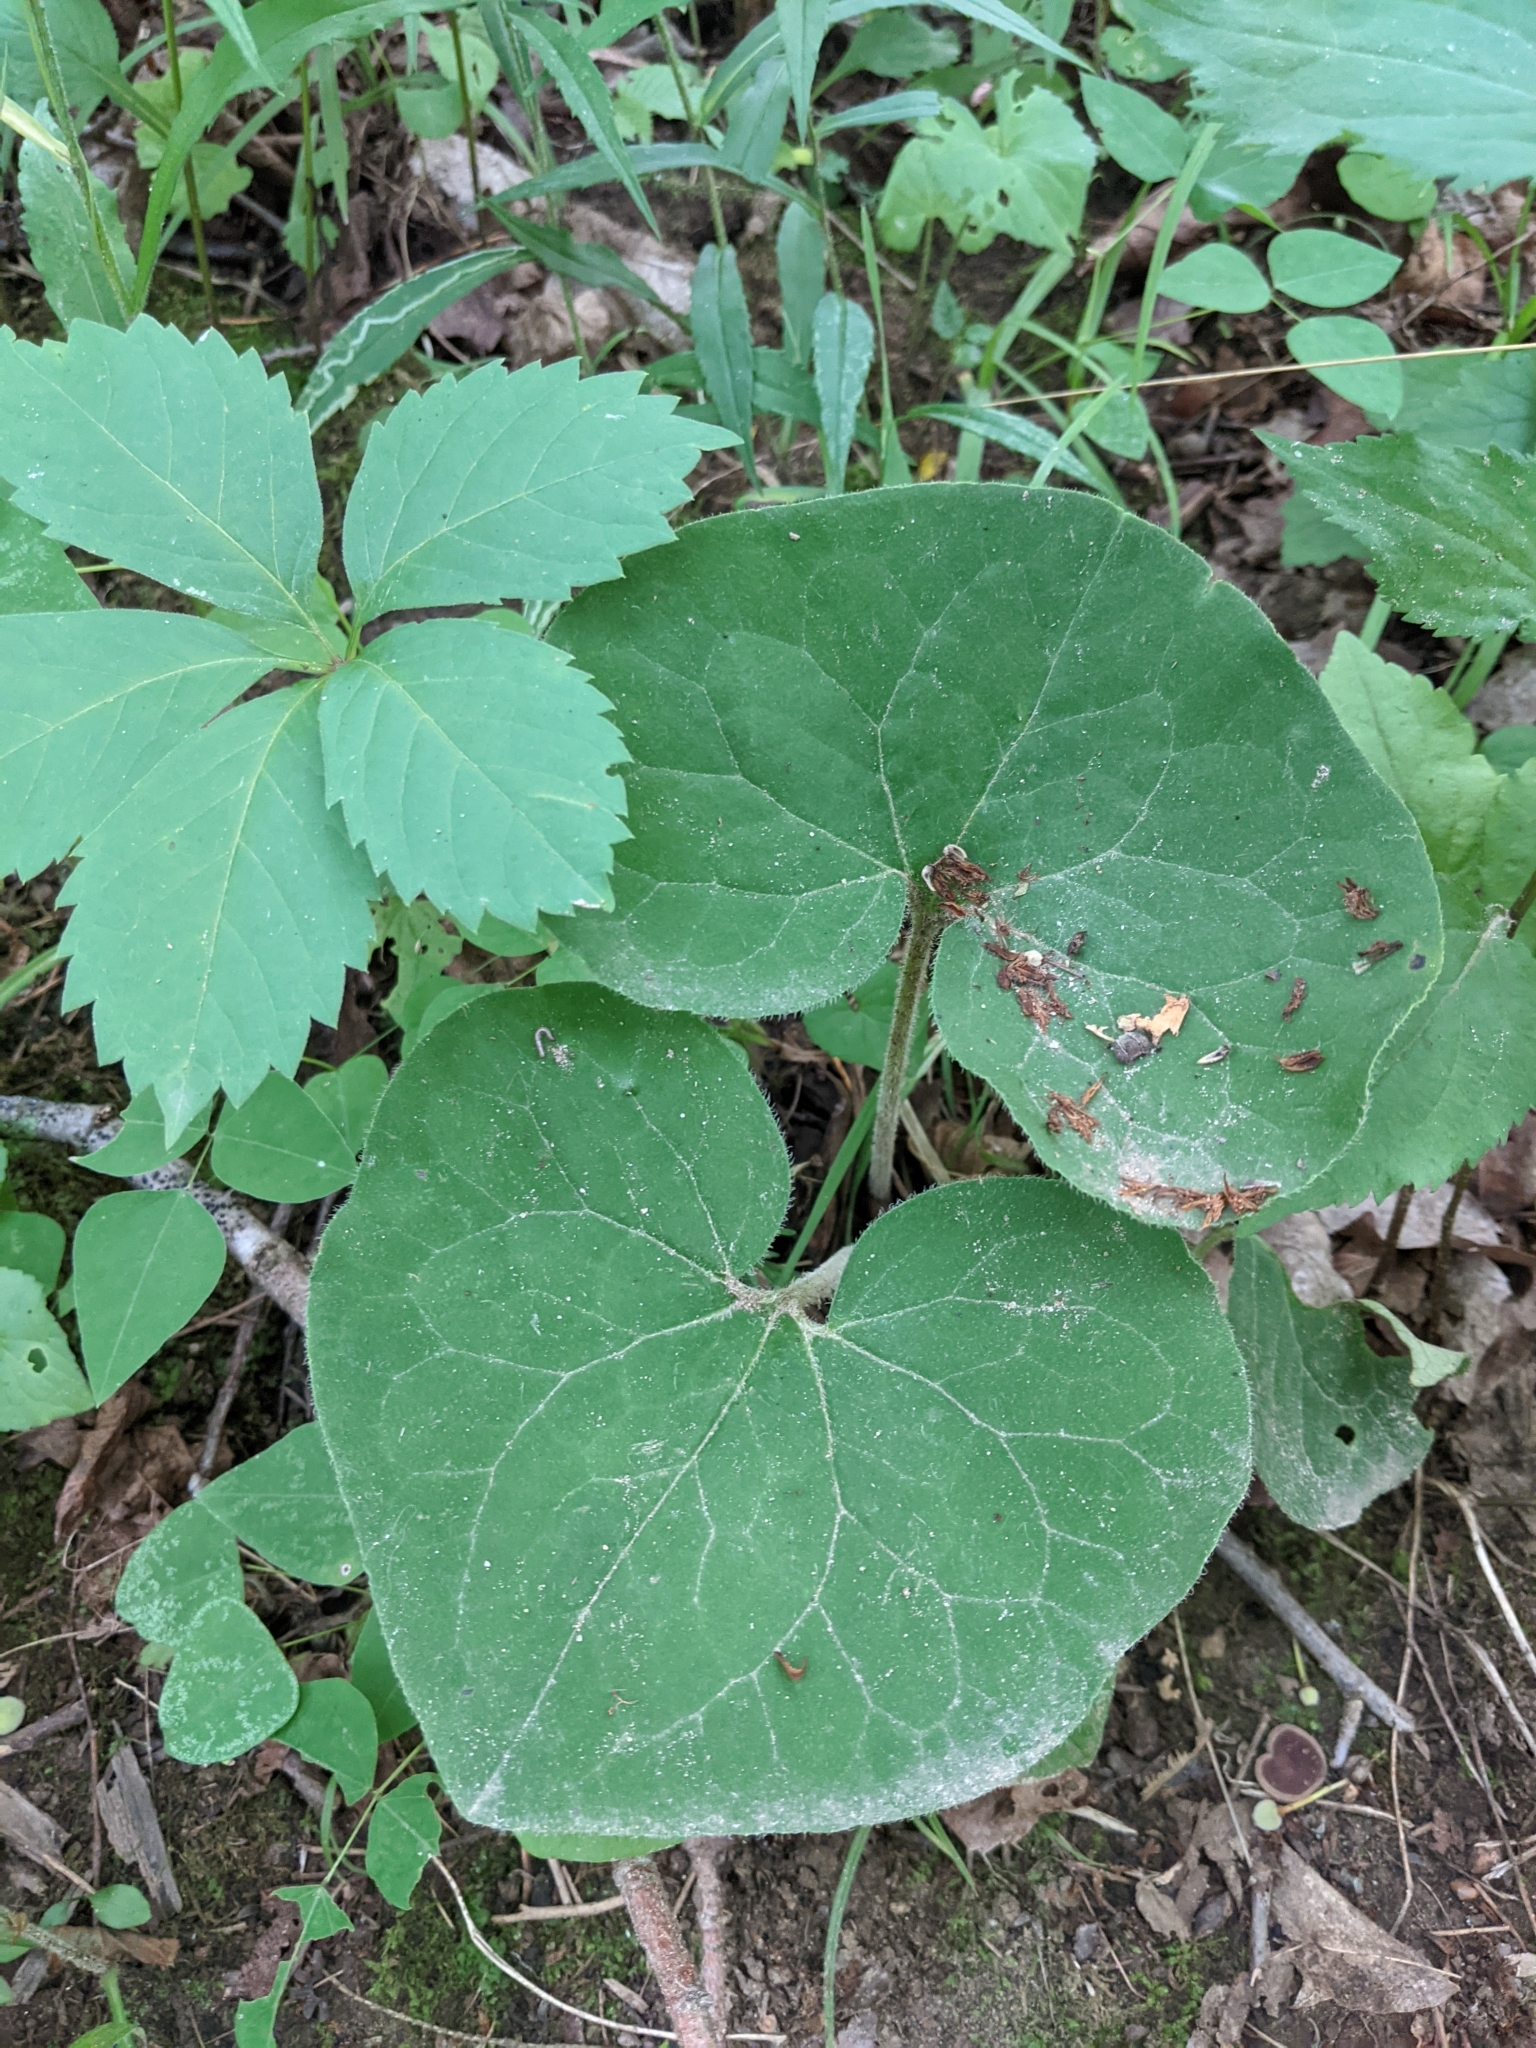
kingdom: Plantae
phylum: Tracheophyta
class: Magnoliopsida
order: Piperales
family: Aristolochiaceae
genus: Asarum
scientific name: Asarum canadense
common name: Wild ginger
